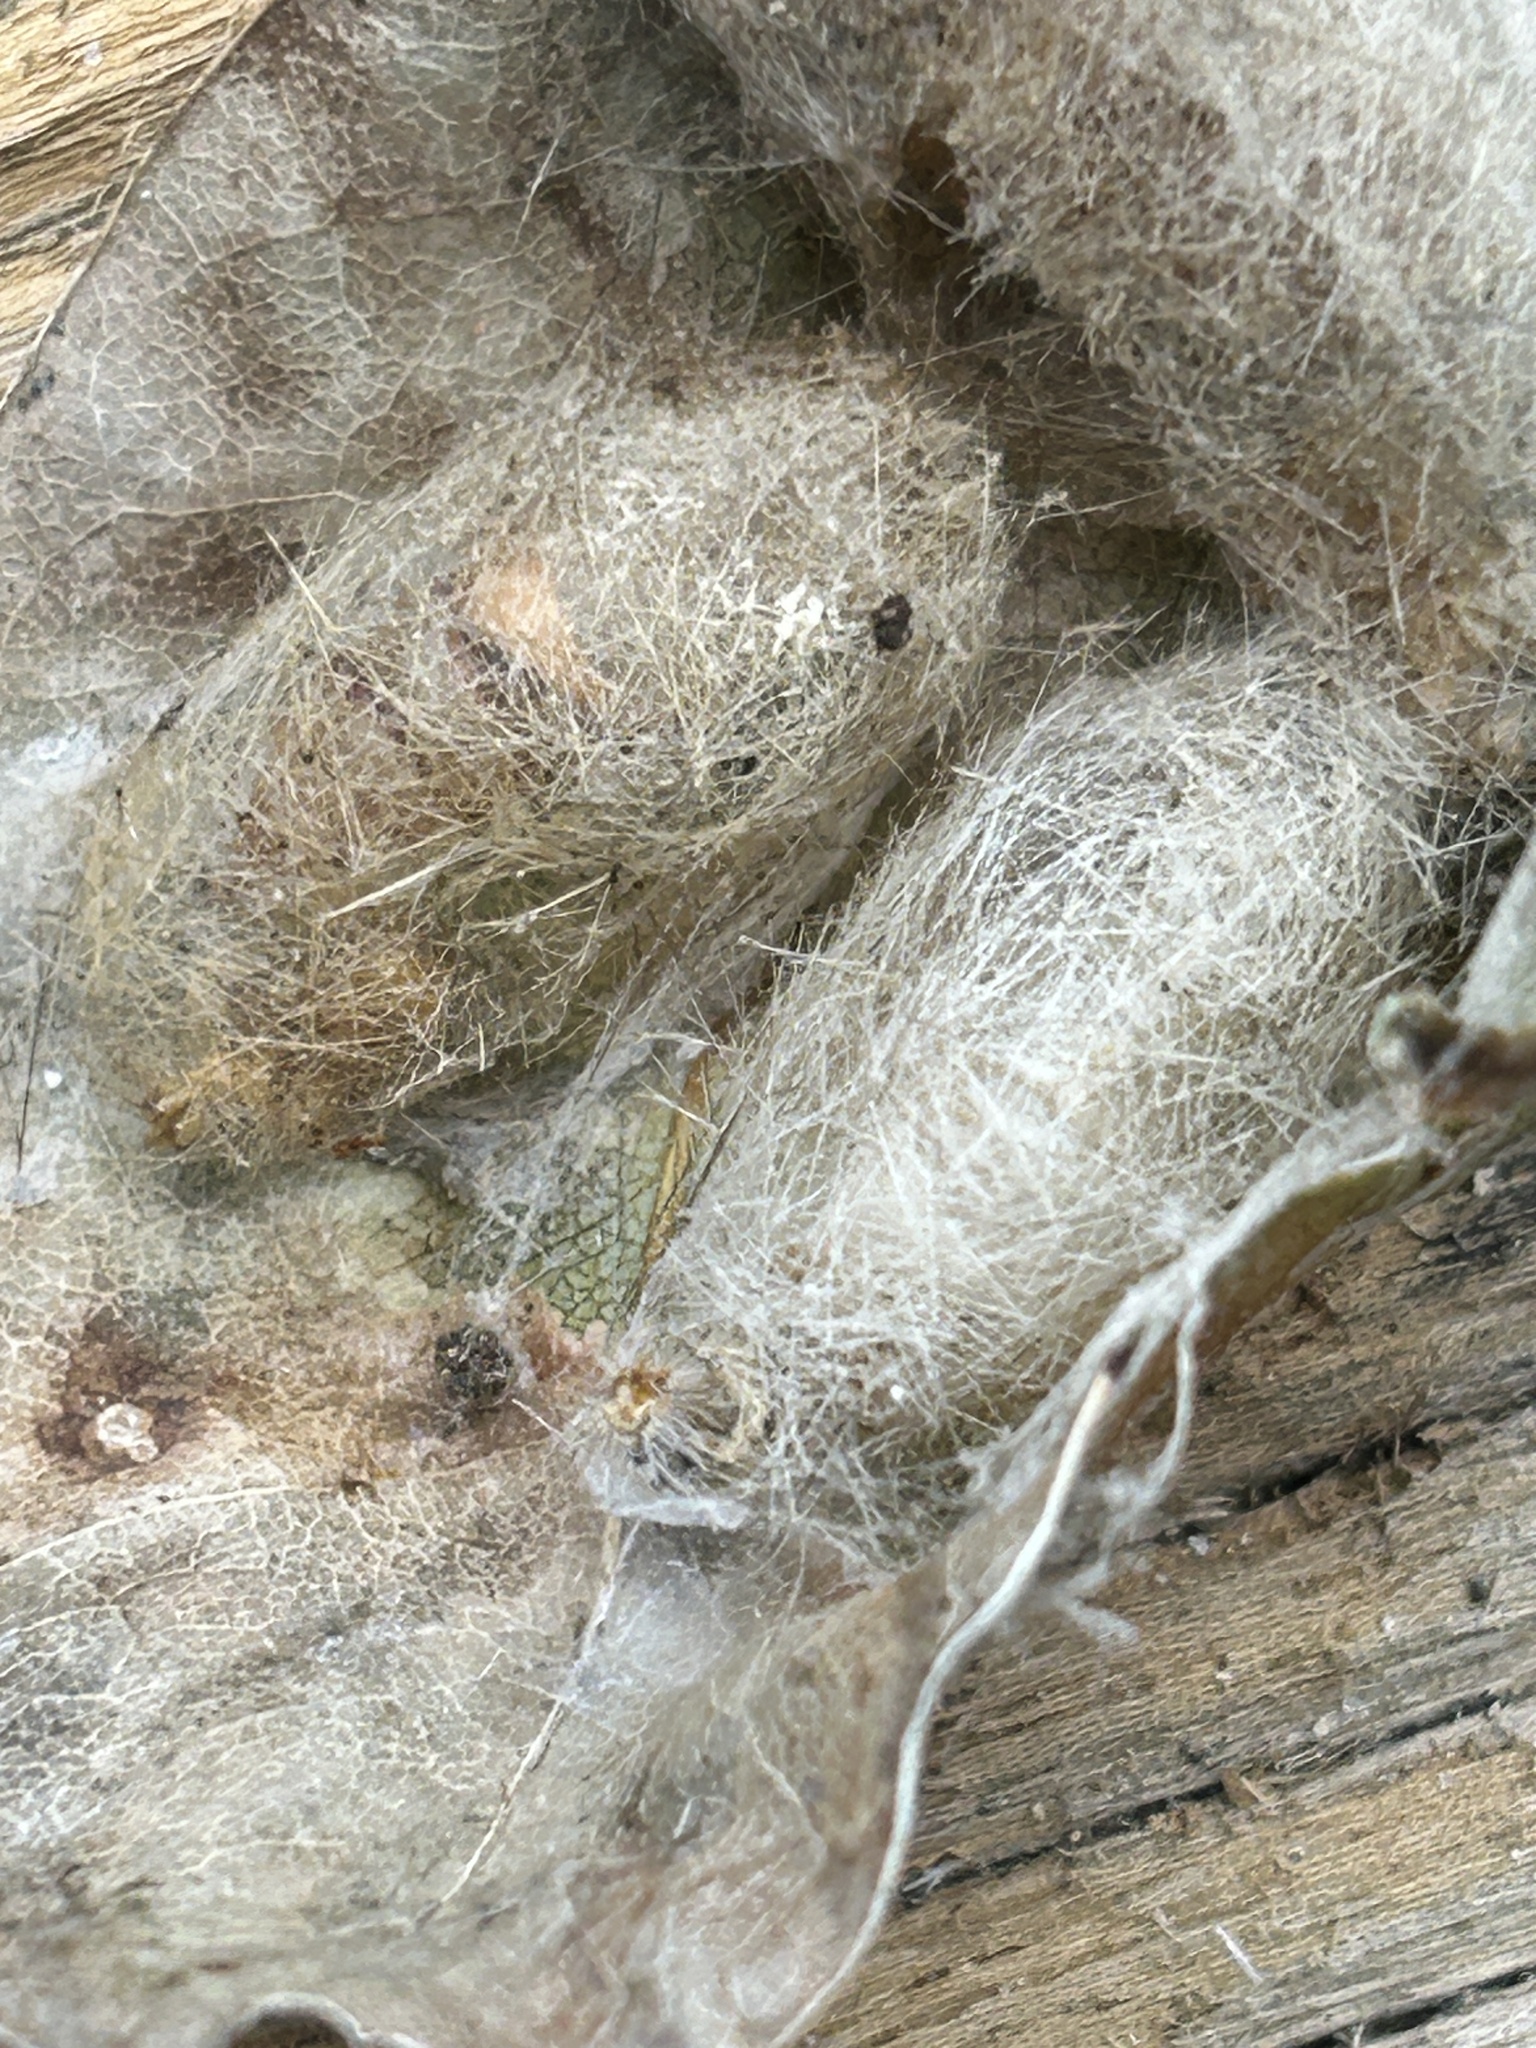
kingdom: Animalia
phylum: Arthropoda
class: Insecta
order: Lepidoptera
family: Erebidae
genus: Laelia
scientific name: Laelia fusca
